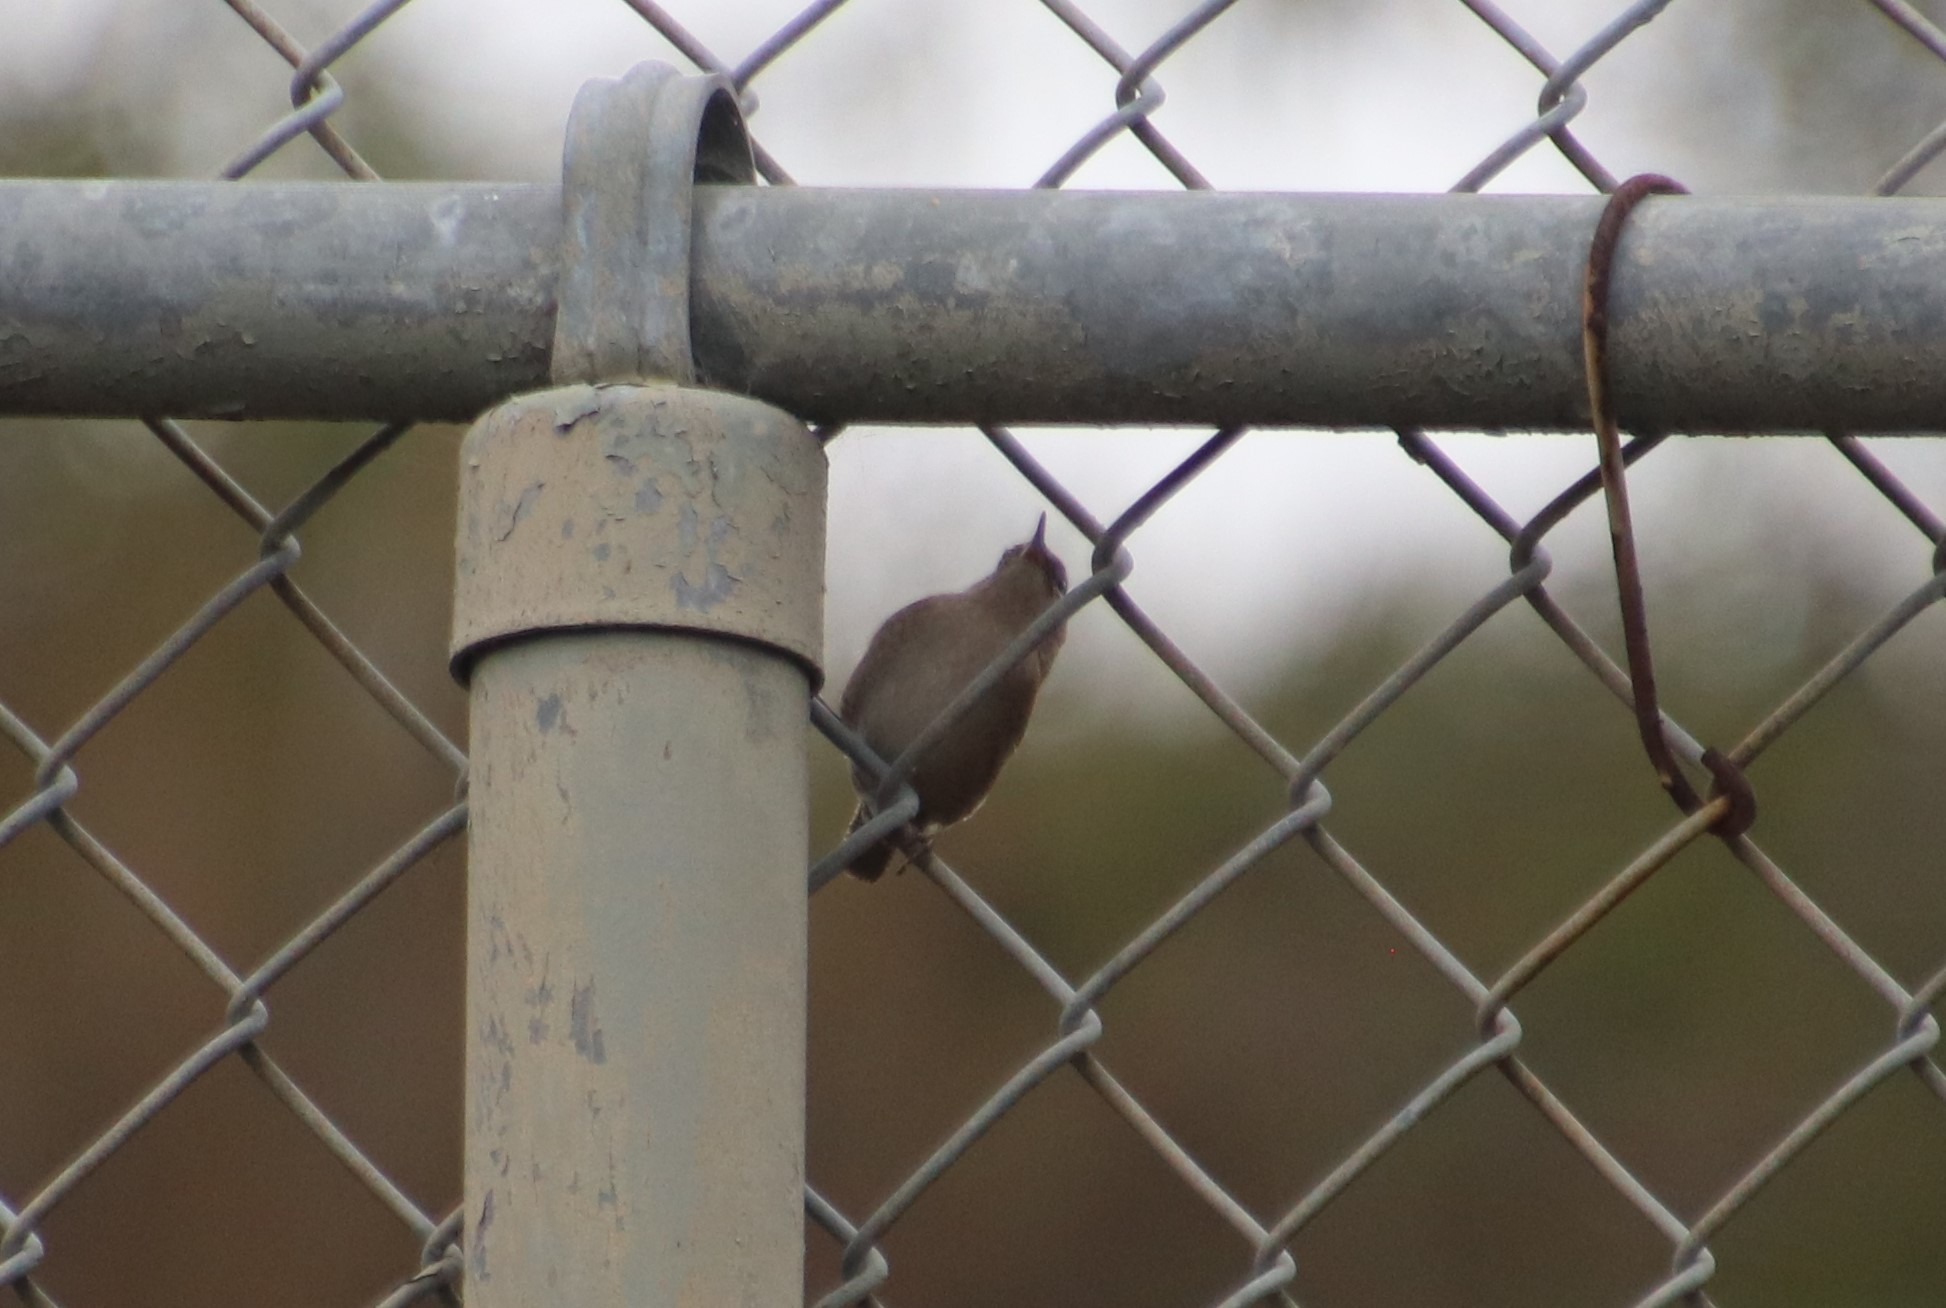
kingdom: Animalia
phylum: Chordata
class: Aves
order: Passeriformes
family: Troglodytidae
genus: Troglodytes
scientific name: Troglodytes aedon
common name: House wren
